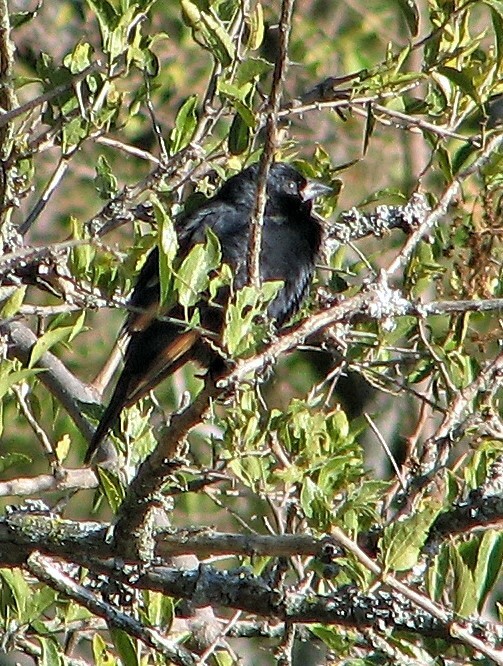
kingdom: Animalia
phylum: Chordata
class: Aves
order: Passeriformes
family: Icteridae
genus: Molothrus
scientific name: Molothrus rufoaxillaris
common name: Screaming cowbird
